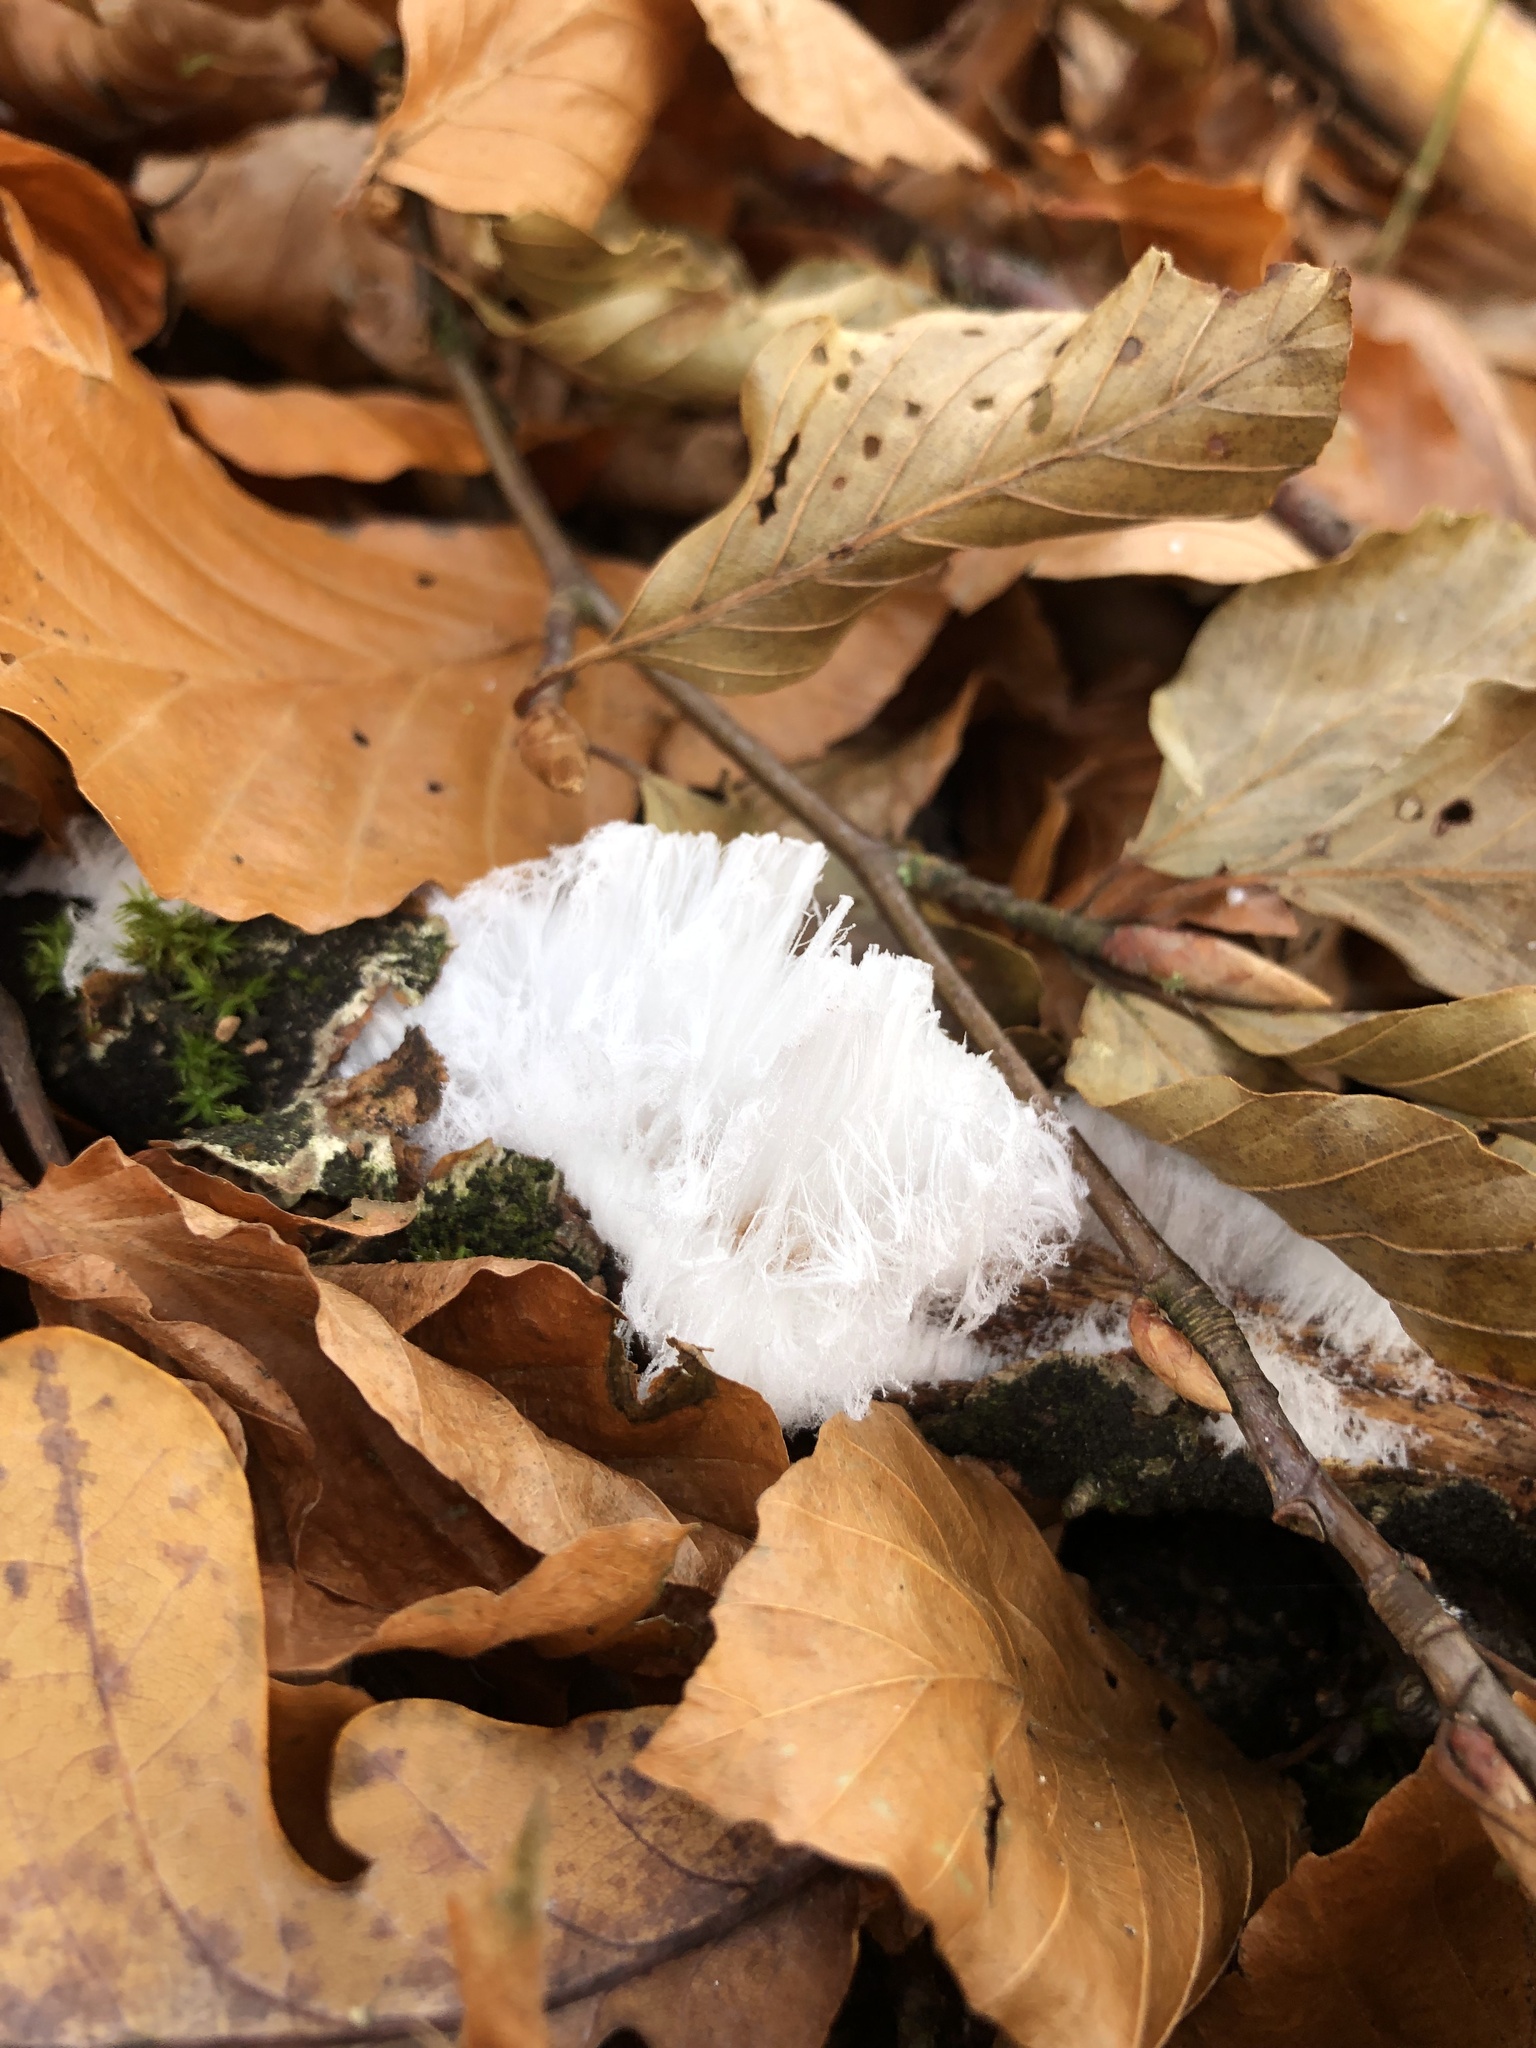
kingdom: Fungi
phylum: Basidiomycota
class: Agaricomycetes
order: Auriculariales
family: Auriculariaceae
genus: Exidiopsis
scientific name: Exidiopsis effusa
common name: Hair ice crust
